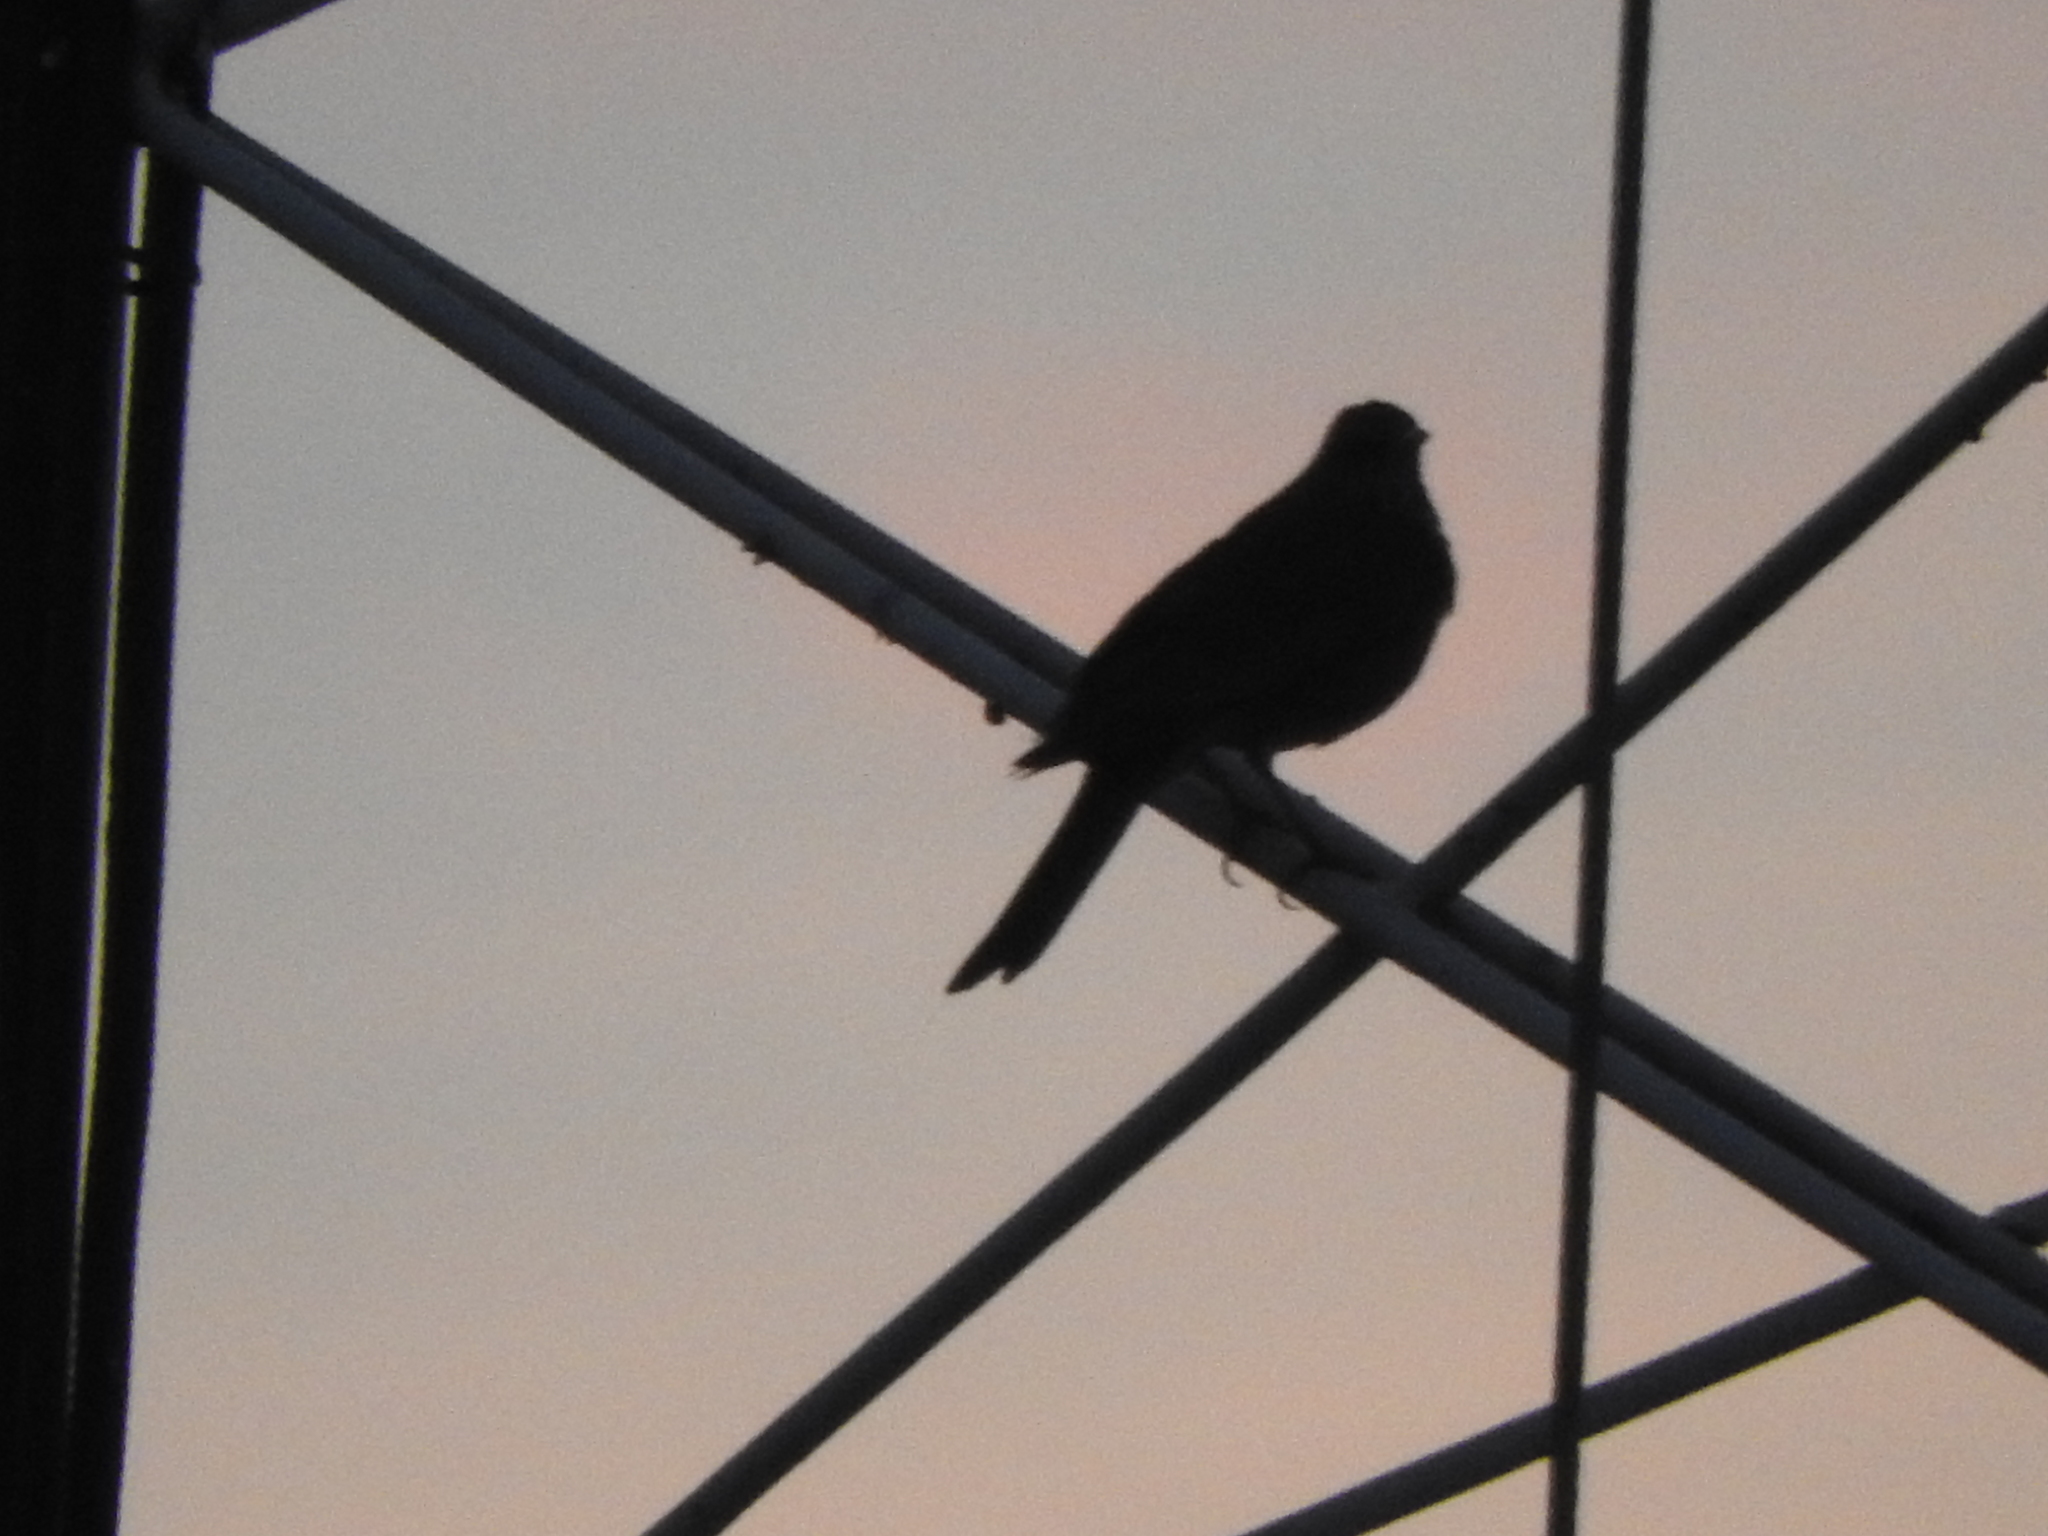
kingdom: Animalia
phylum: Chordata
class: Aves
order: Passeriformes
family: Turdidae
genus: Turdus
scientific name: Turdus rufopalliatus
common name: Rufous-backed robin
